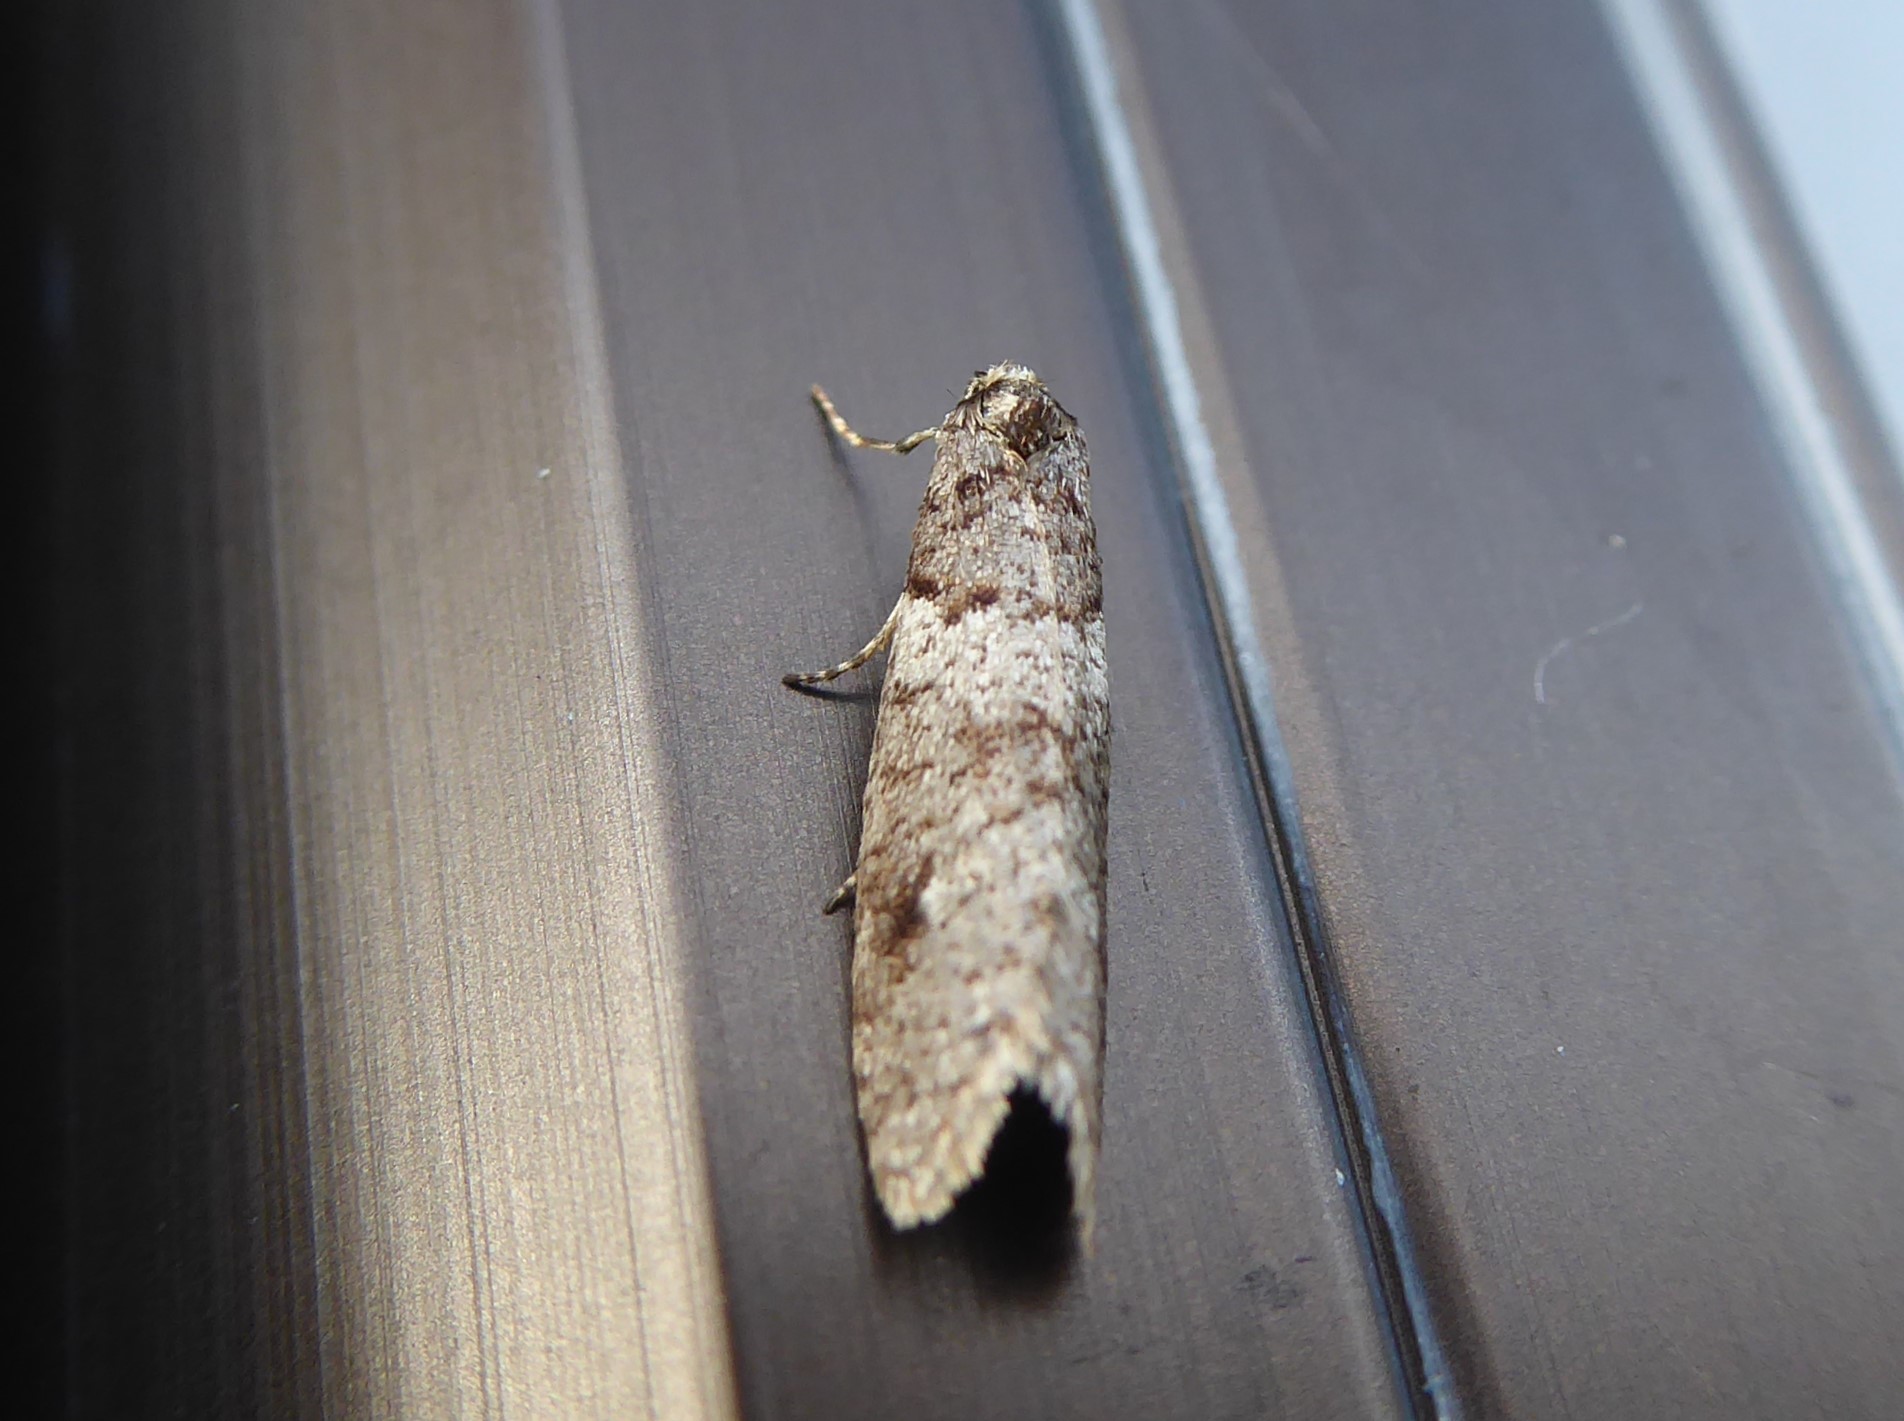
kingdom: Animalia
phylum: Arthropoda
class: Insecta
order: Lepidoptera
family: Psychidae
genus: Lepidoscia
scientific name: Lepidoscia heliochares
